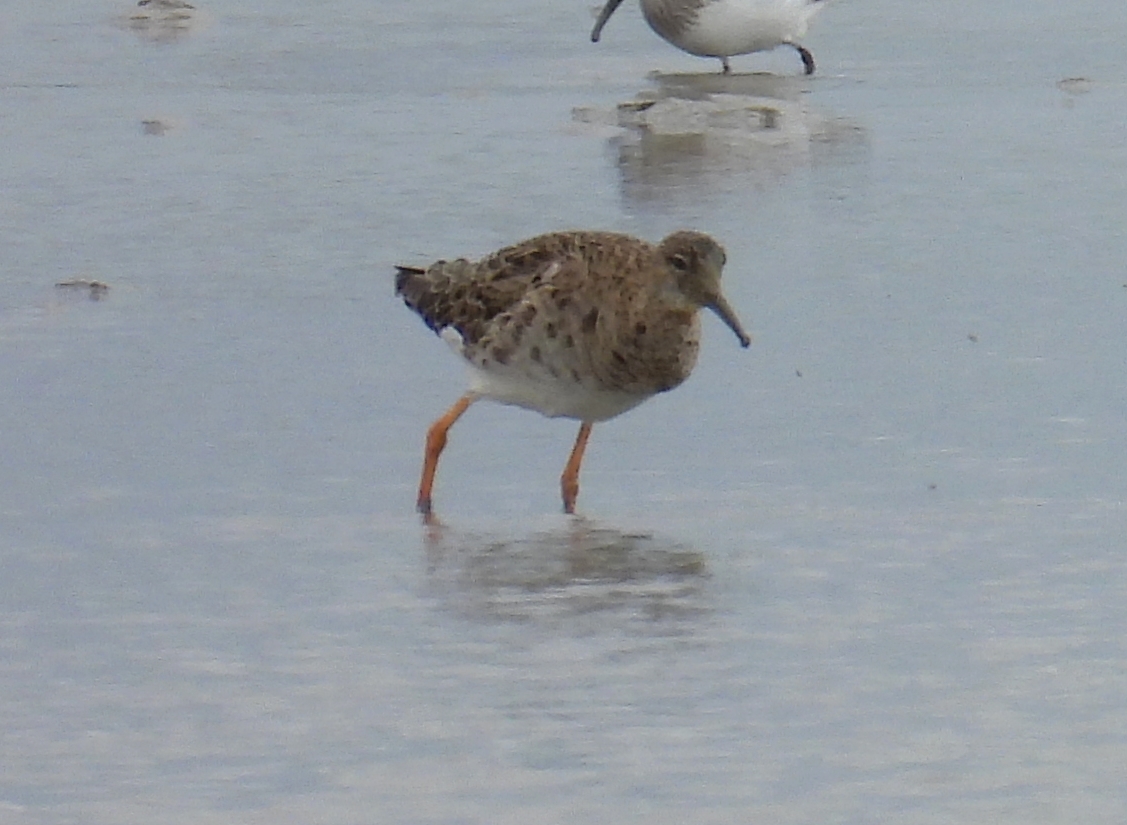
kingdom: Animalia
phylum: Chordata
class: Aves
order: Charadriiformes
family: Scolopacidae
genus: Calidris
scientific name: Calidris pugnax
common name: Ruff
